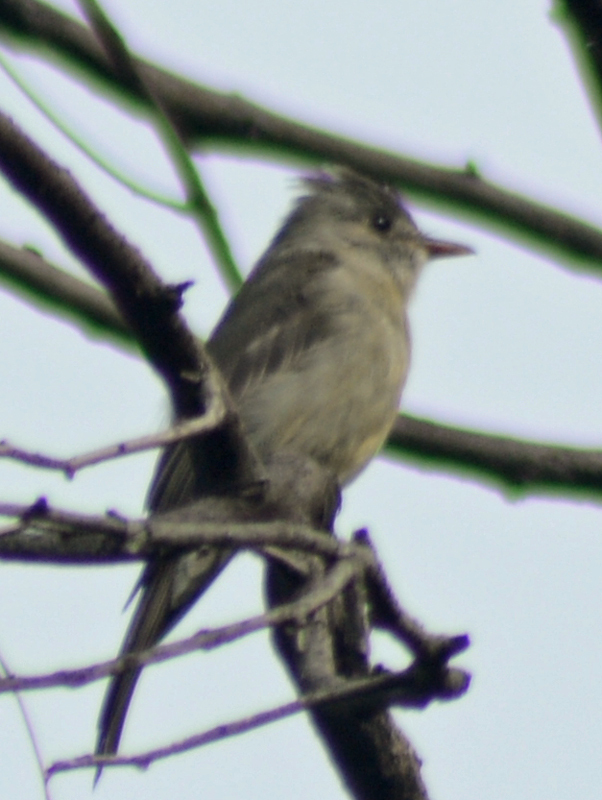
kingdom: Animalia
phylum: Chordata
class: Aves
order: Passeriformes
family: Tyrannidae
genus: Contopus
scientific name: Contopus pertinax
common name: Greater pewee
